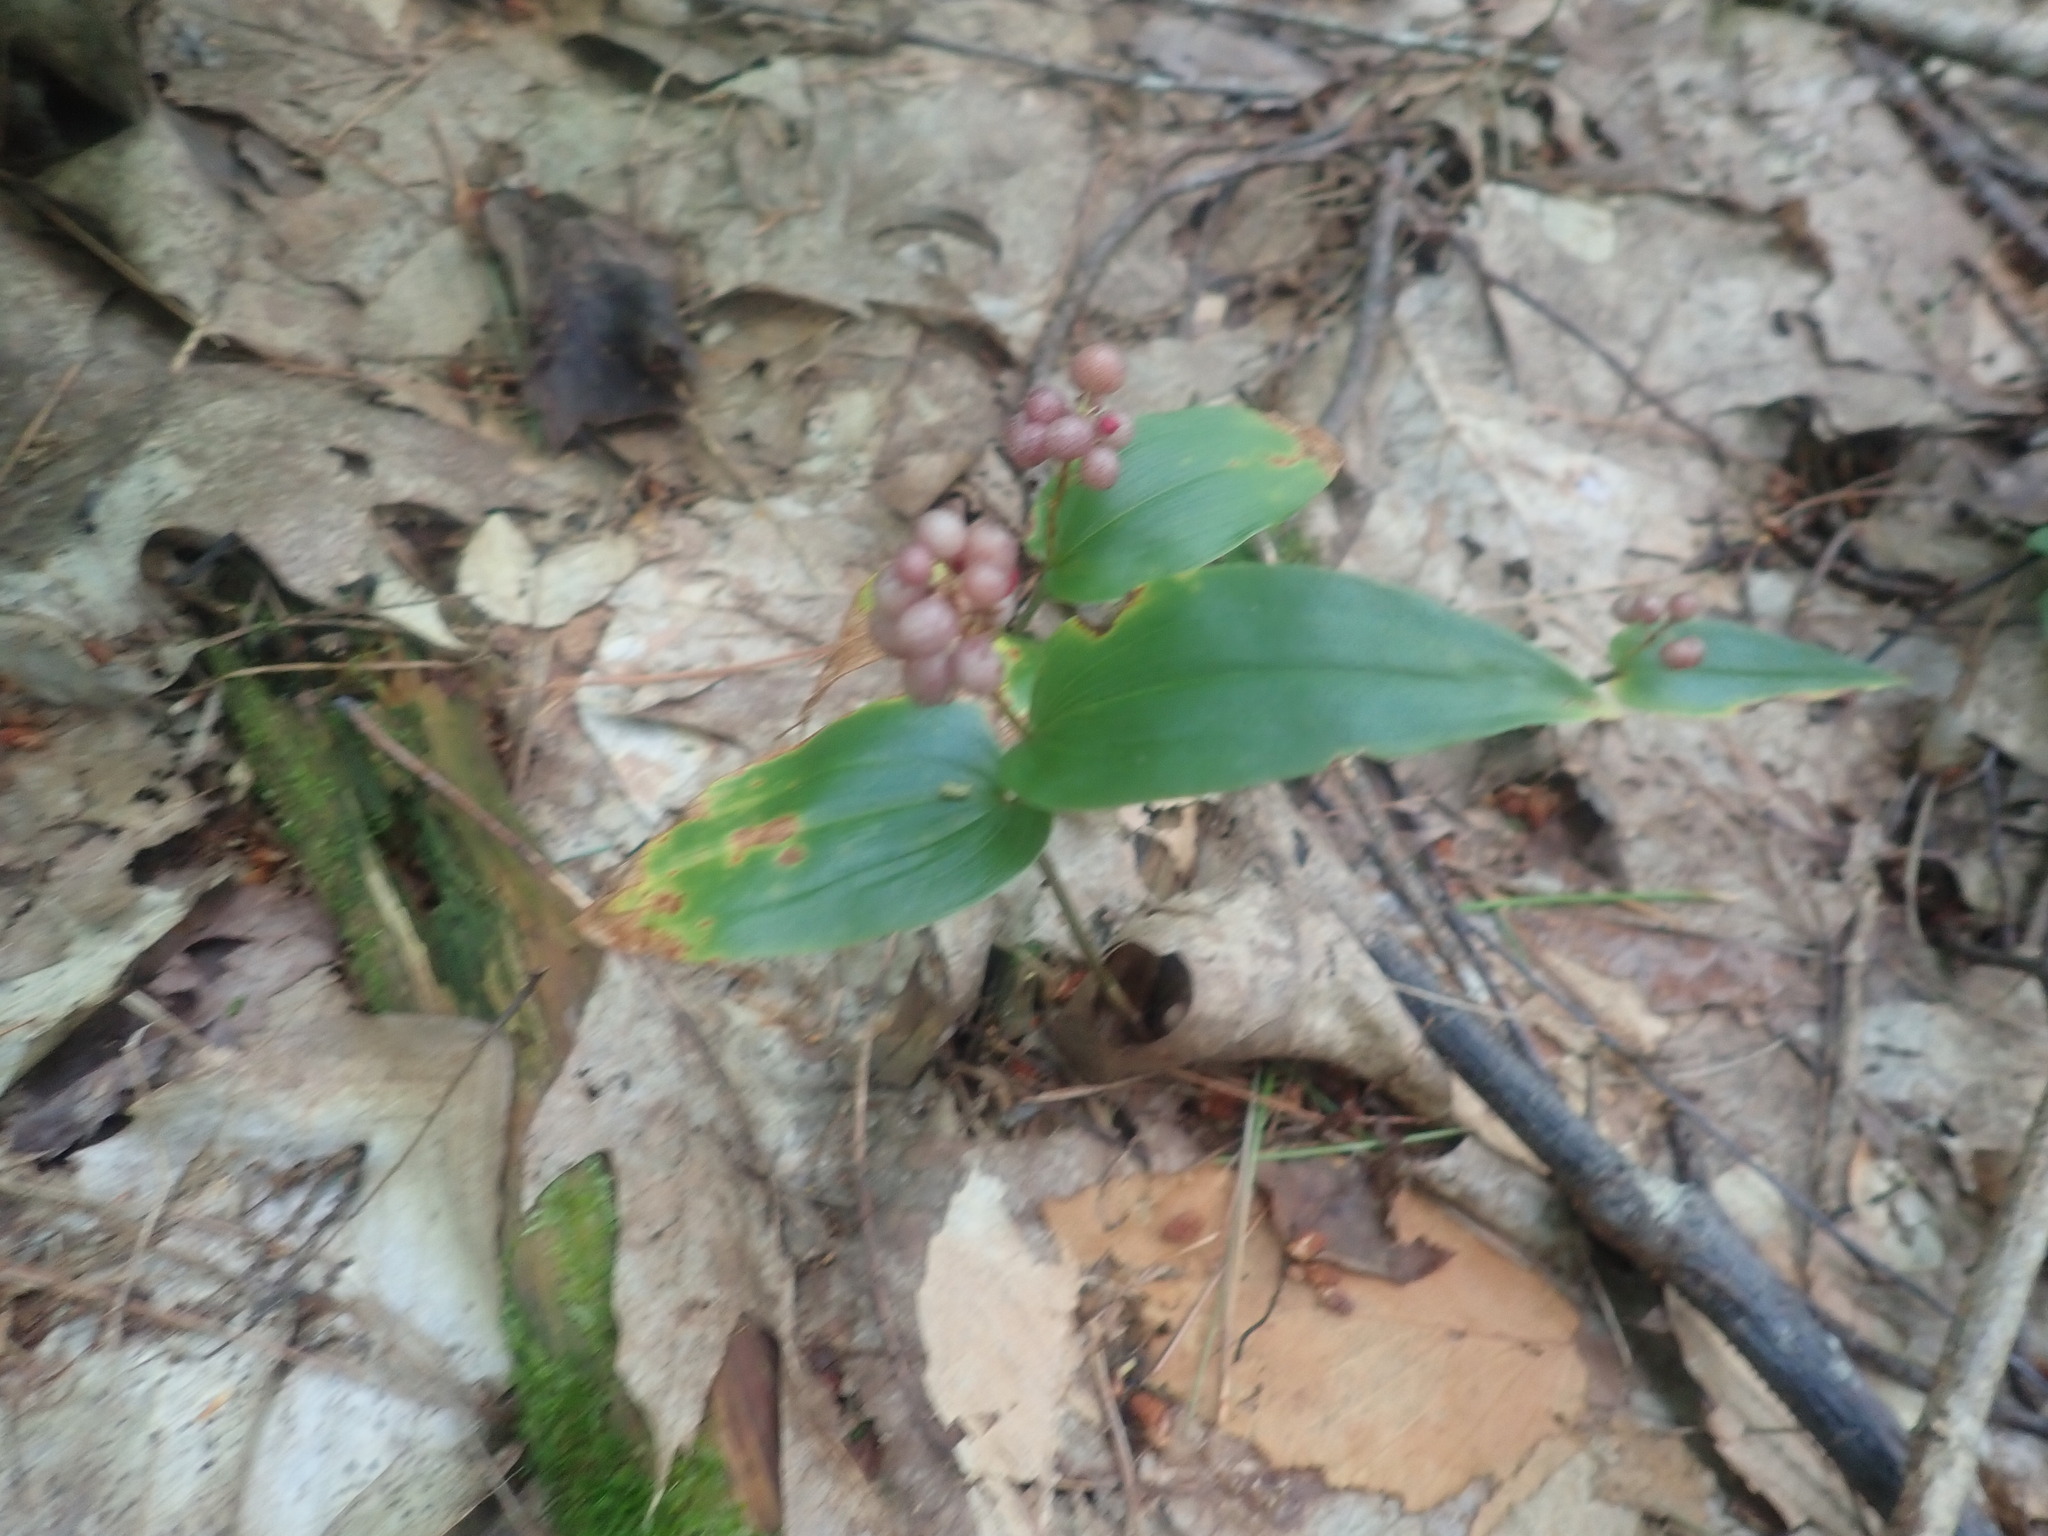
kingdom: Plantae
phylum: Tracheophyta
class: Liliopsida
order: Asparagales
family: Asparagaceae
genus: Maianthemum
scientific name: Maianthemum canadense
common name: False lily-of-the-valley
